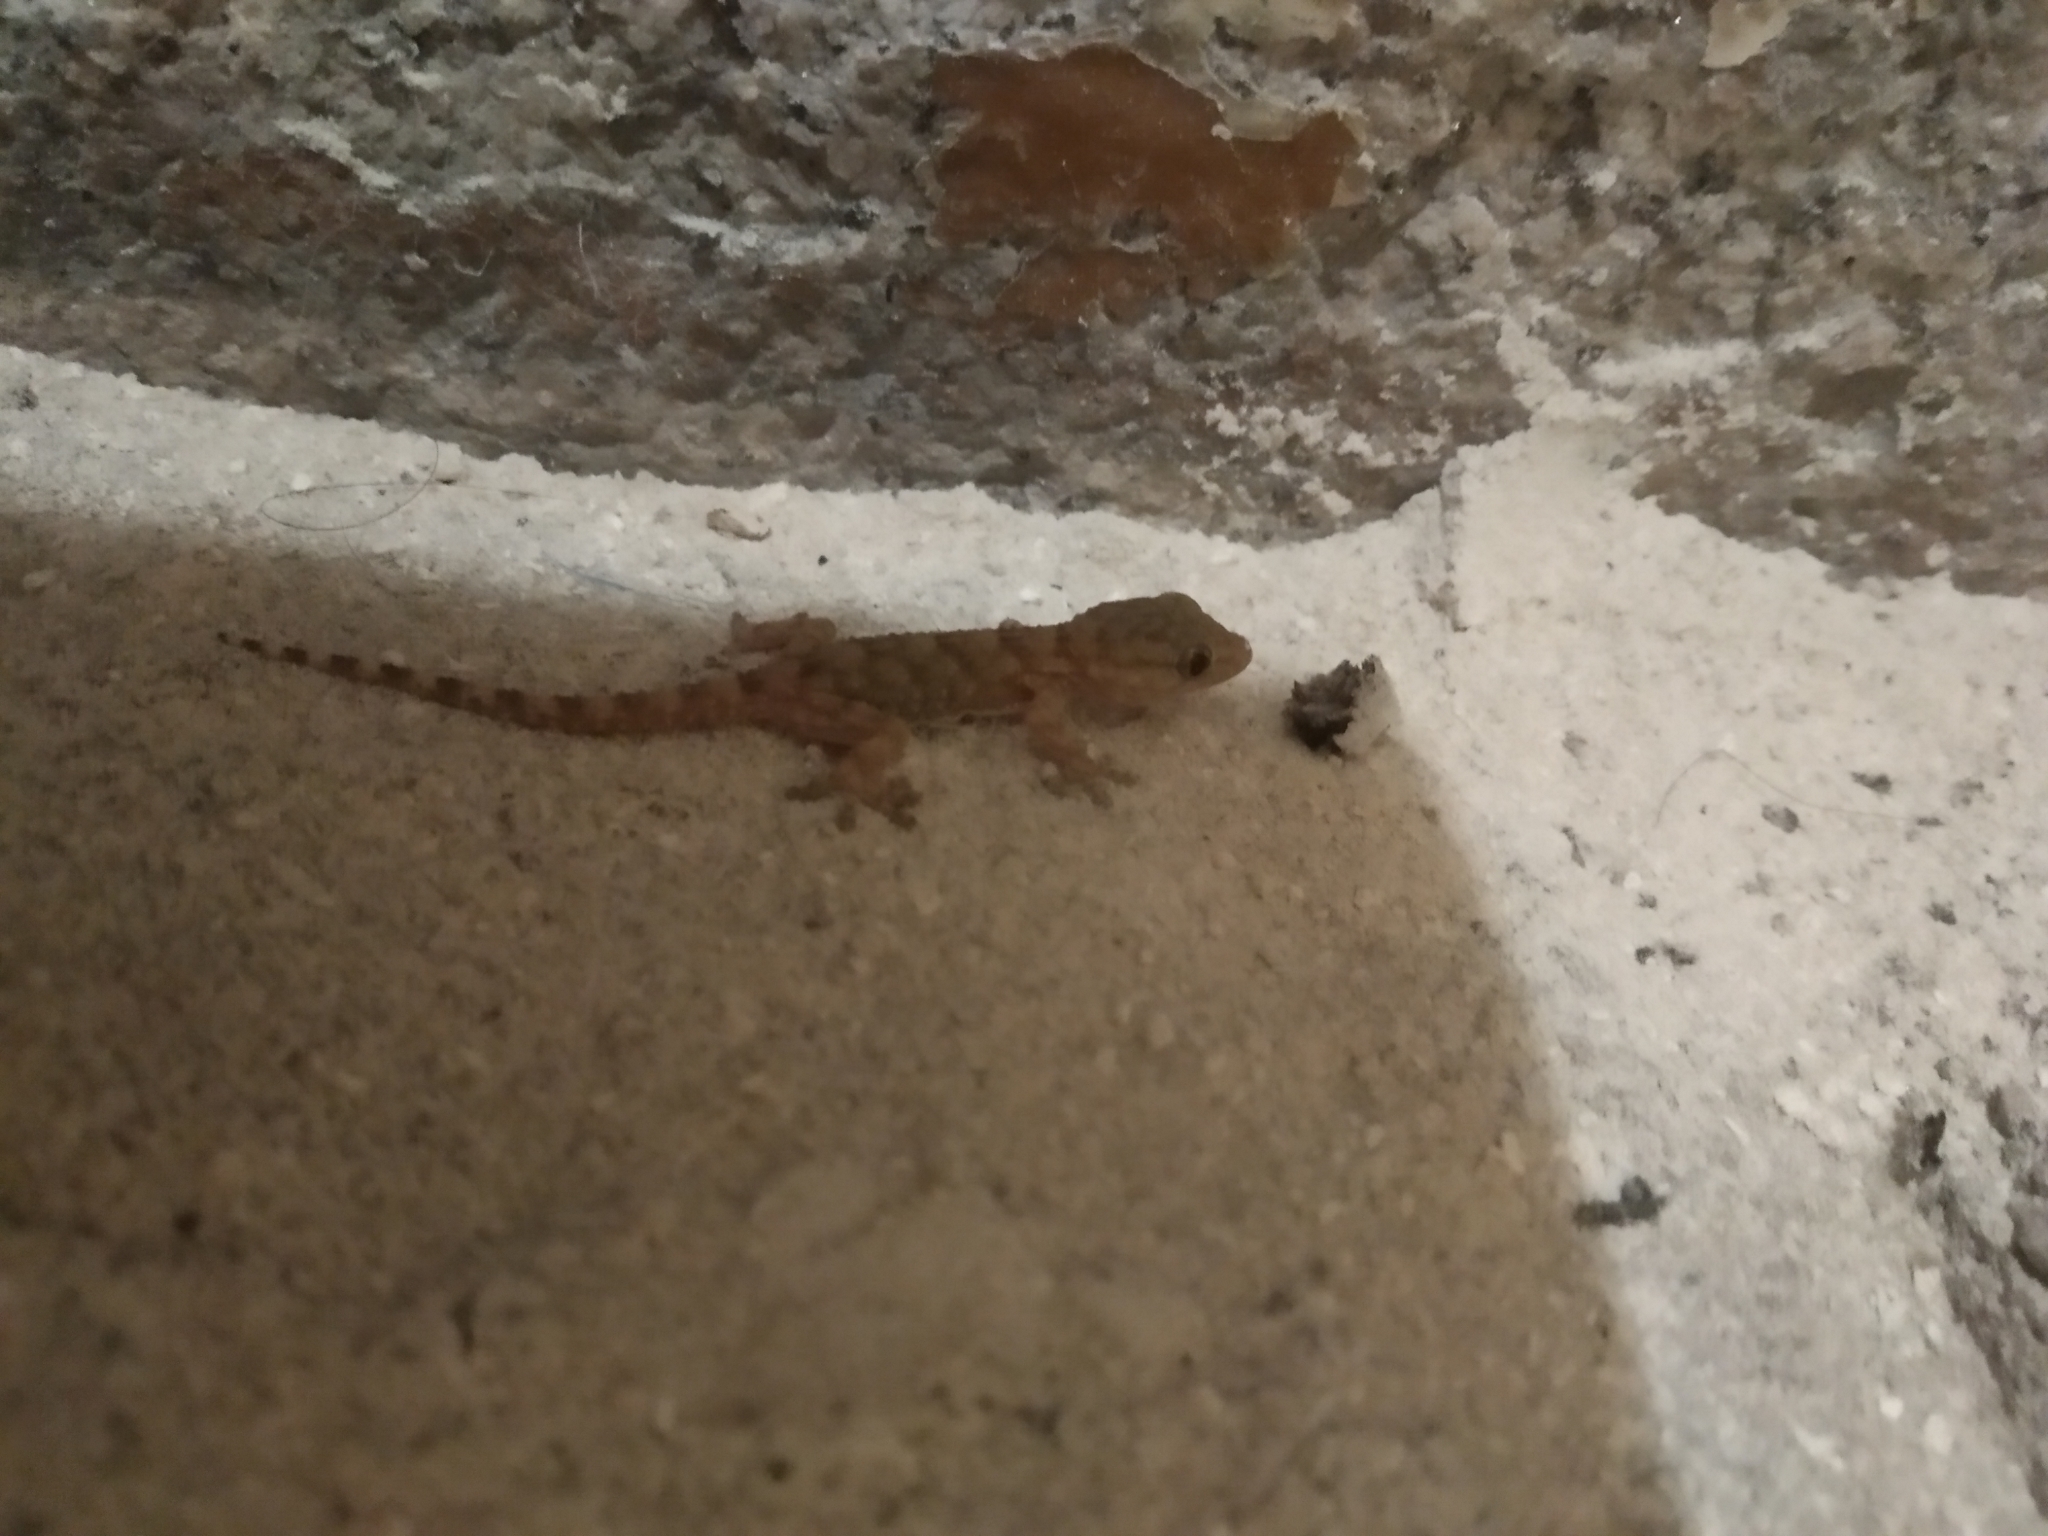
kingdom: Animalia
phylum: Chordata
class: Squamata
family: Phyllodactylidae
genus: Tarentola
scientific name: Tarentola mauritanica
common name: Moorish gecko
